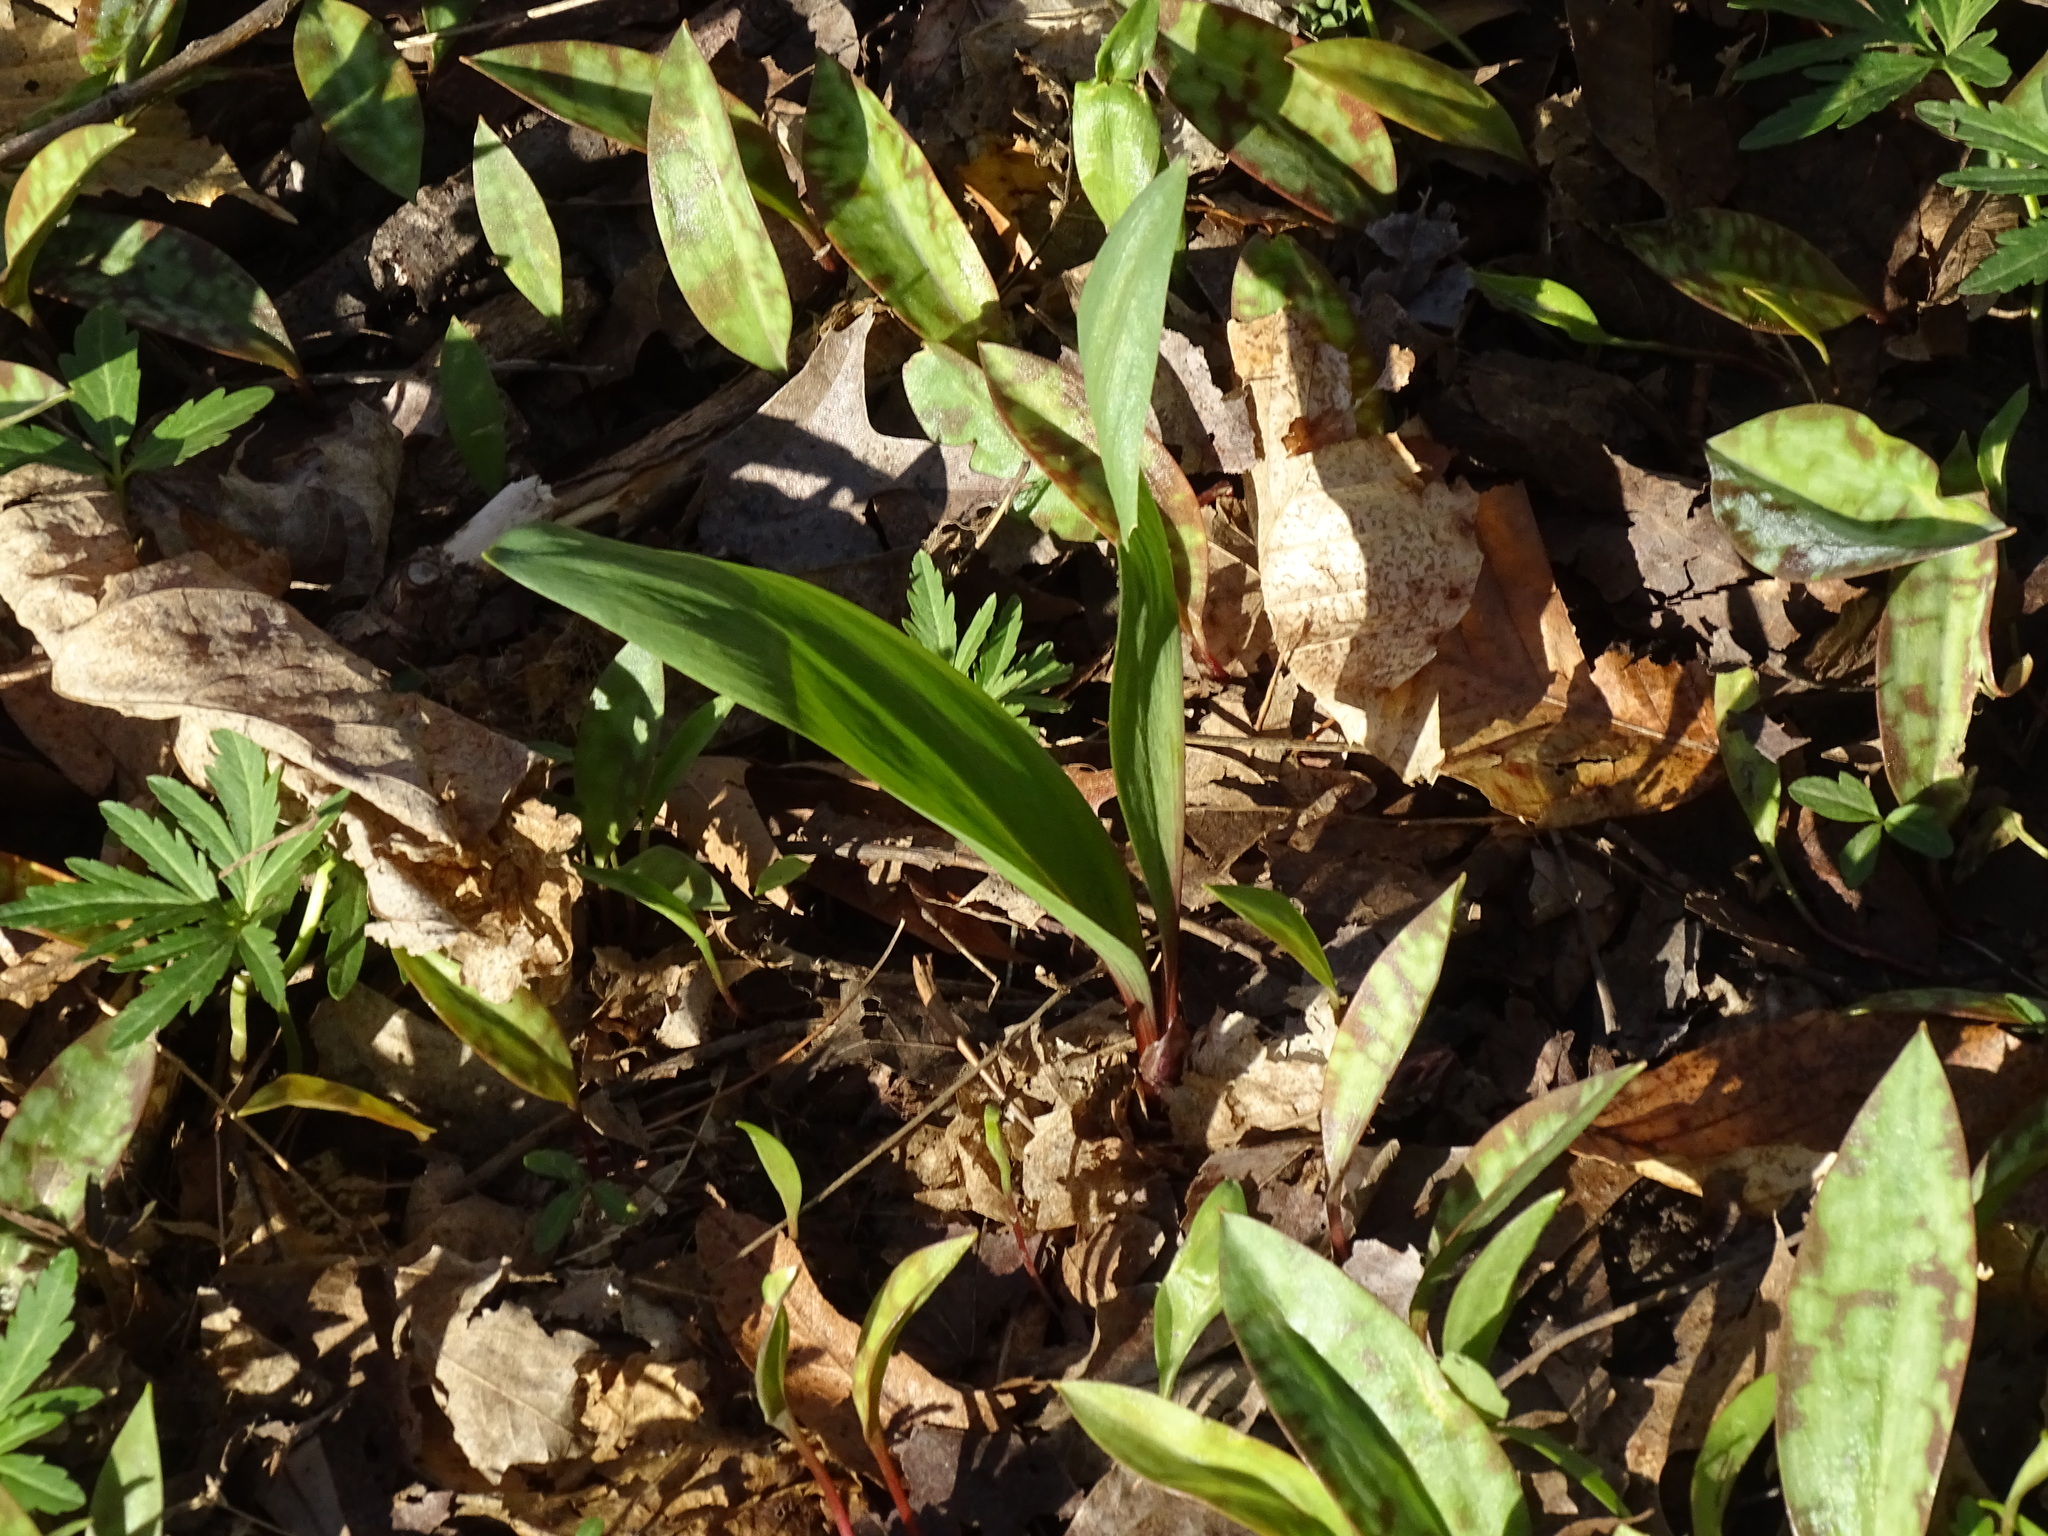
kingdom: Plantae
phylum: Tracheophyta
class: Liliopsida
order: Asparagales
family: Amaryllidaceae
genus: Allium
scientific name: Allium tricoccum
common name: Ramp
